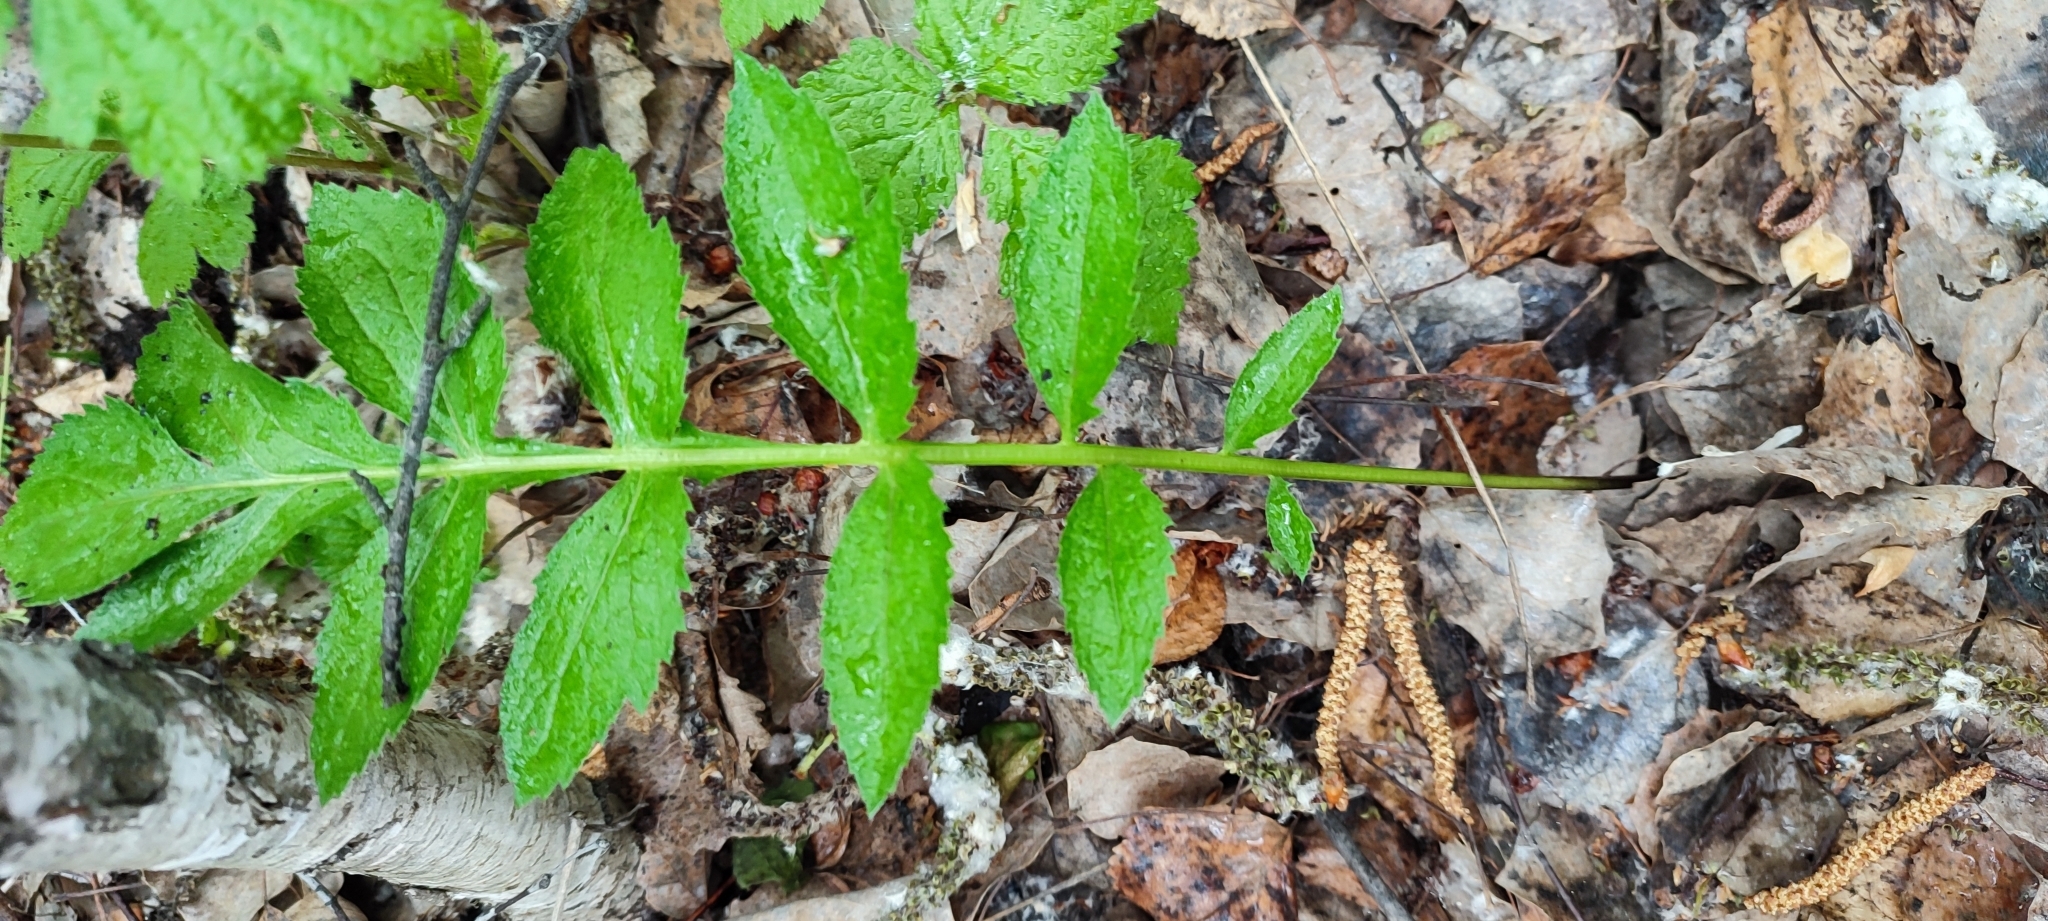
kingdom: Plantae
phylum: Tracheophyta
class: Magnoliopsida
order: Asterales
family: Asteraceae
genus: Serratula
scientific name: Serratula coronata
